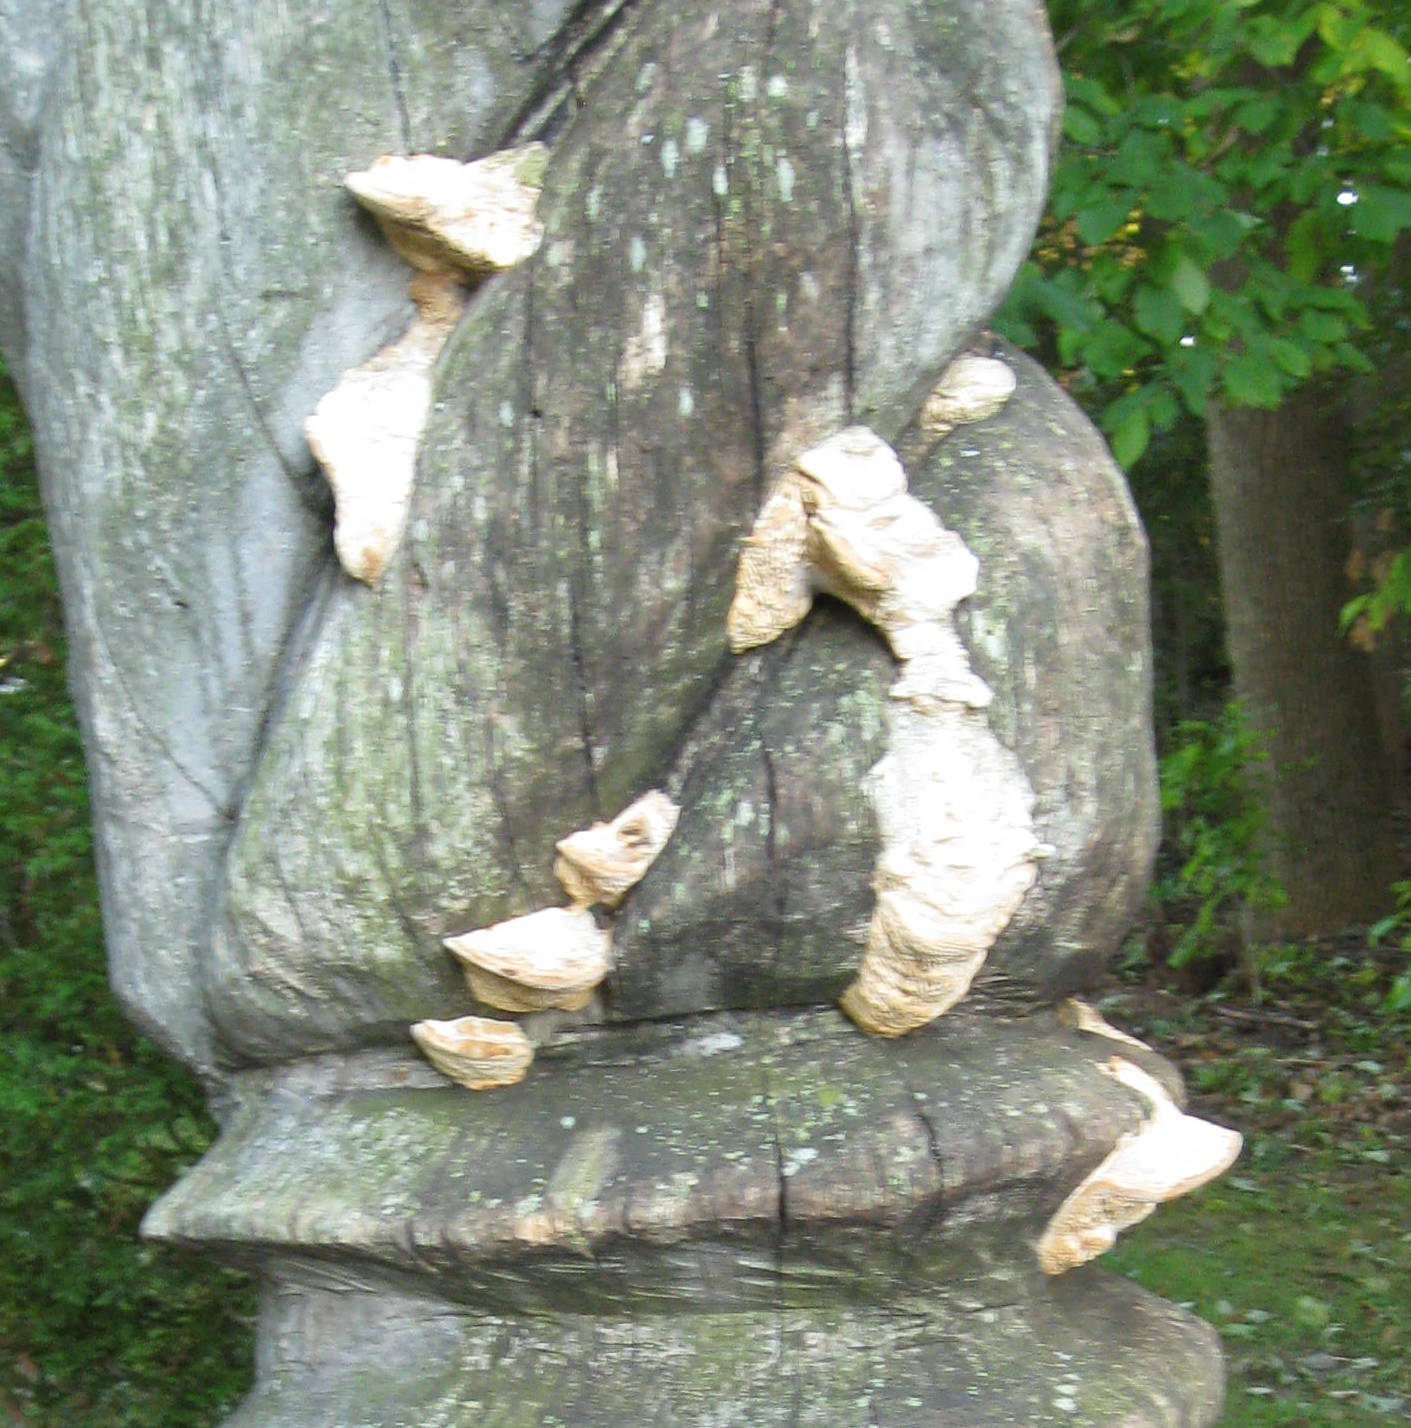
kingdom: Fungi
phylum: Basidiomycota
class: Agaricomycetes
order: Polyporales
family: Fomitopsidaceae
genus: Fomitopsis
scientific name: Fomitopsis
